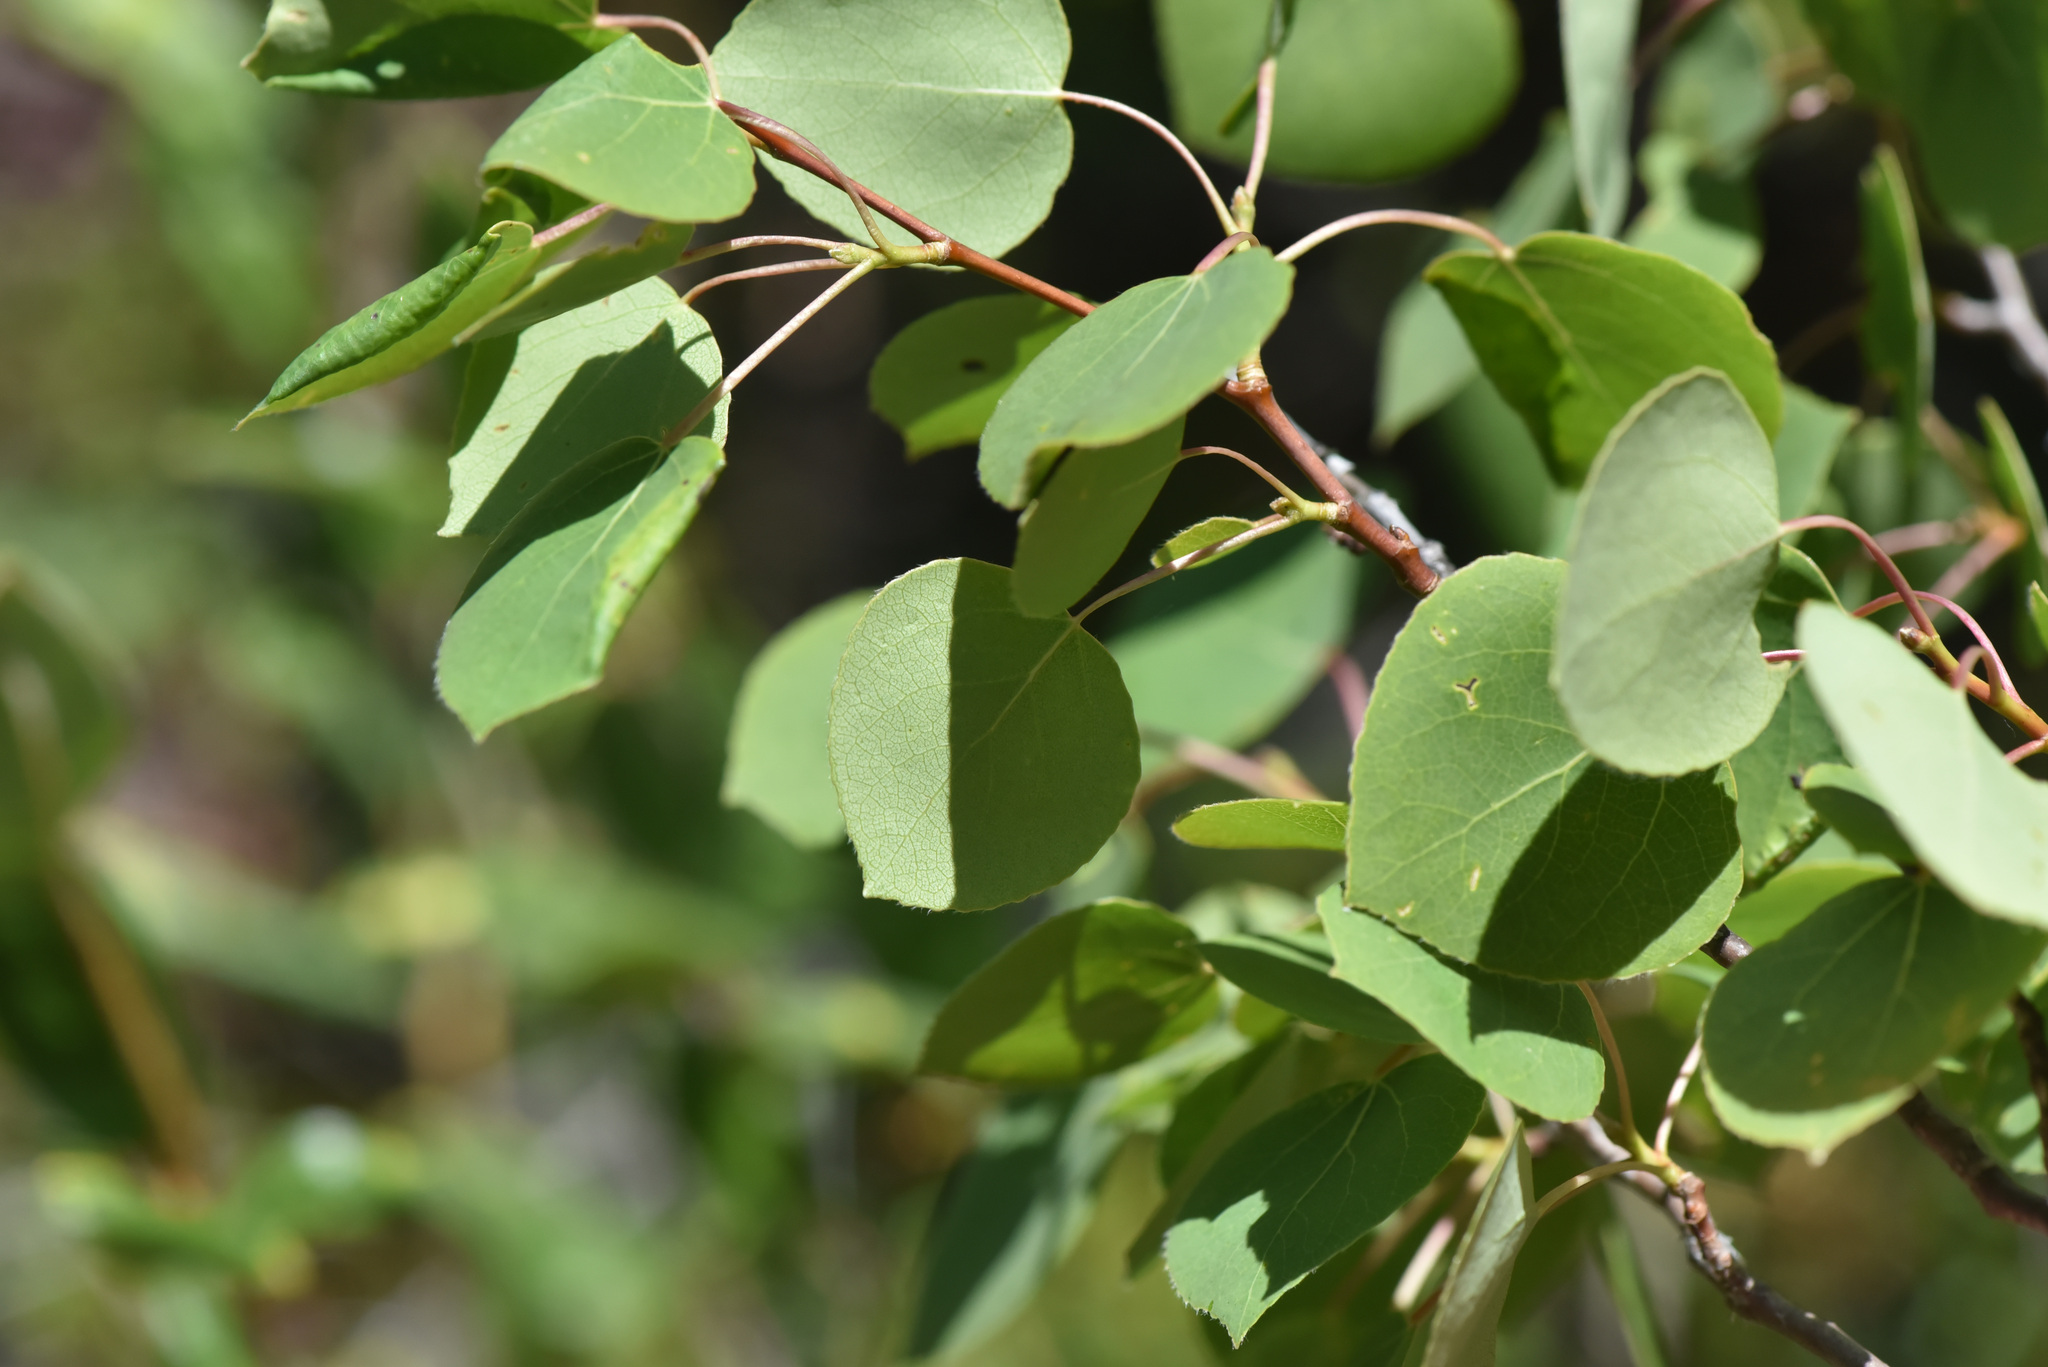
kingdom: Plantae
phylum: Tracheophyta
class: Magnoliopsida
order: Malpighiales
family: Salicaceae
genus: Populus
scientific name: Populus tremuloides
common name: Quaking aspen
